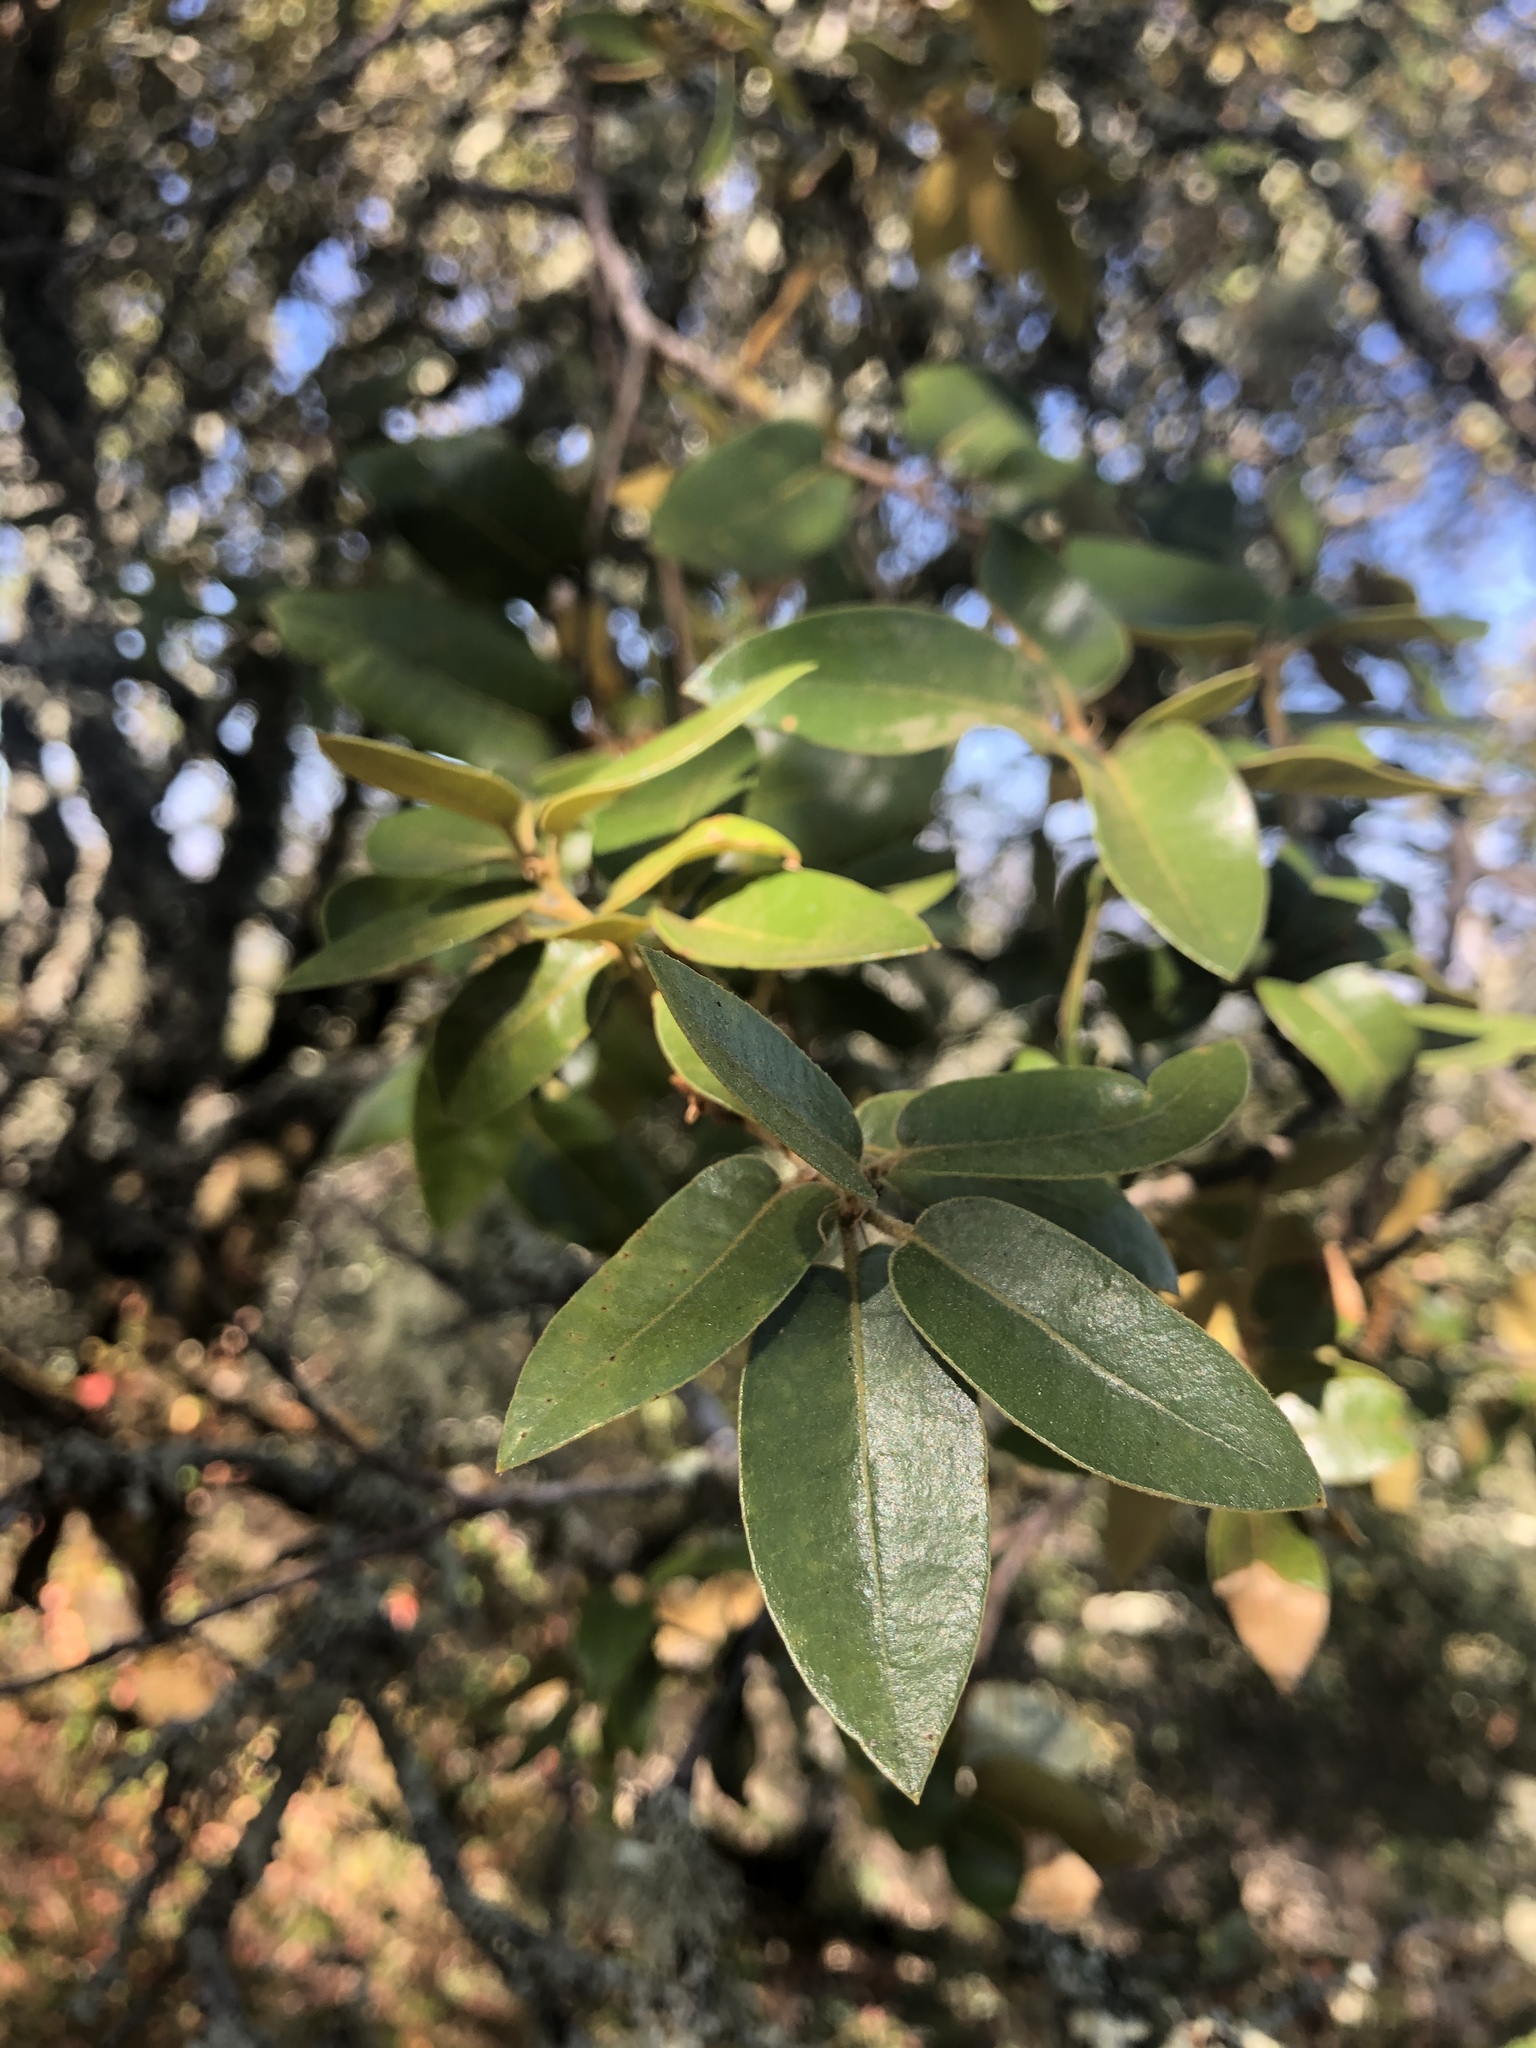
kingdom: Plantae
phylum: Tracheophyta
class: Magnoliopsida
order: Fagales
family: Fagaceae
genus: Quercus
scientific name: Quercus chrysolepis
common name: Canyon live oak
